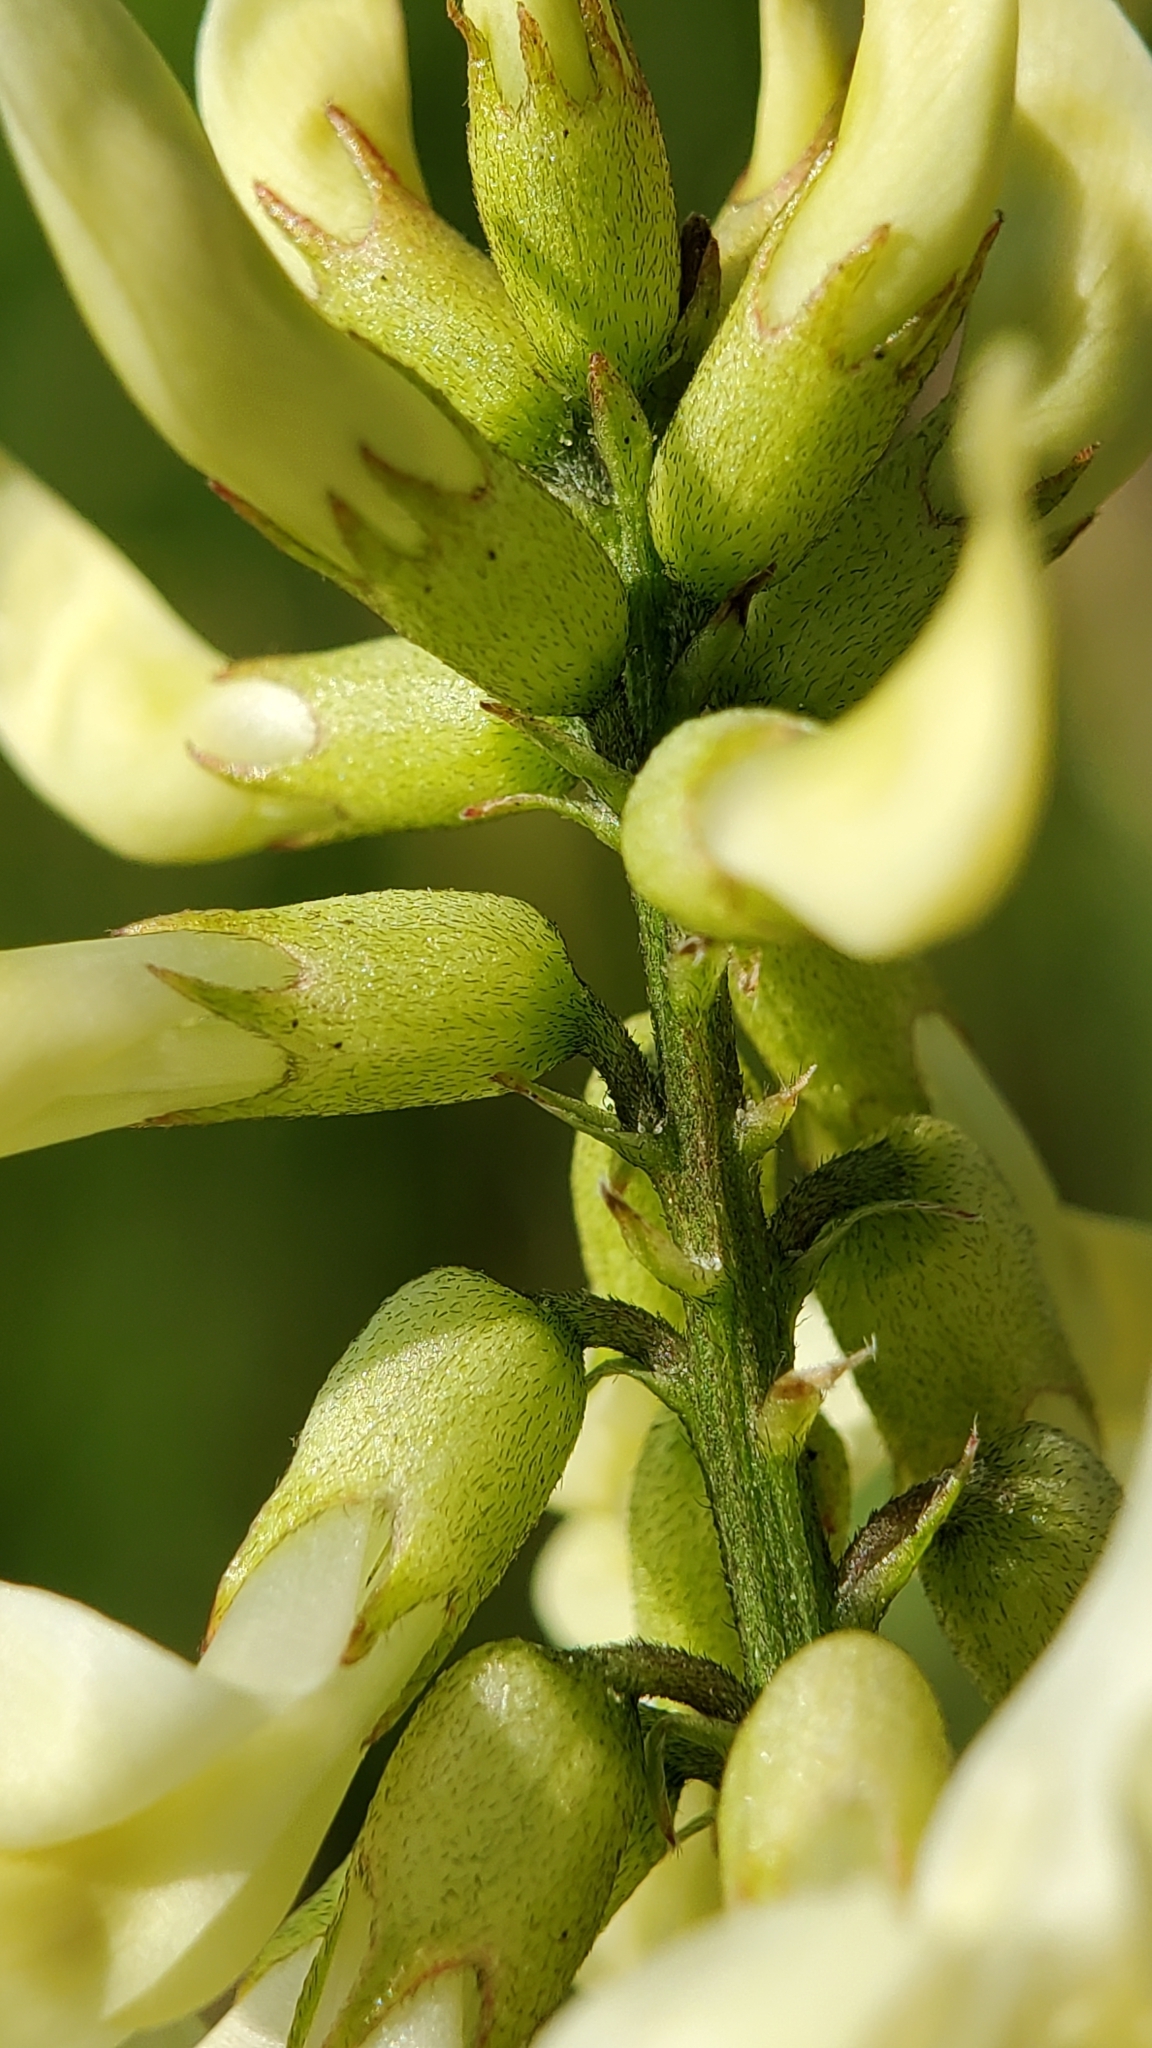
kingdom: Plantae
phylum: Tracheophyta
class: Magnoliopsida
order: Fabales
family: Fabaceae
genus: Astragalus
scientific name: Astragalus trichopodus
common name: Santa barbara milk-vetch
